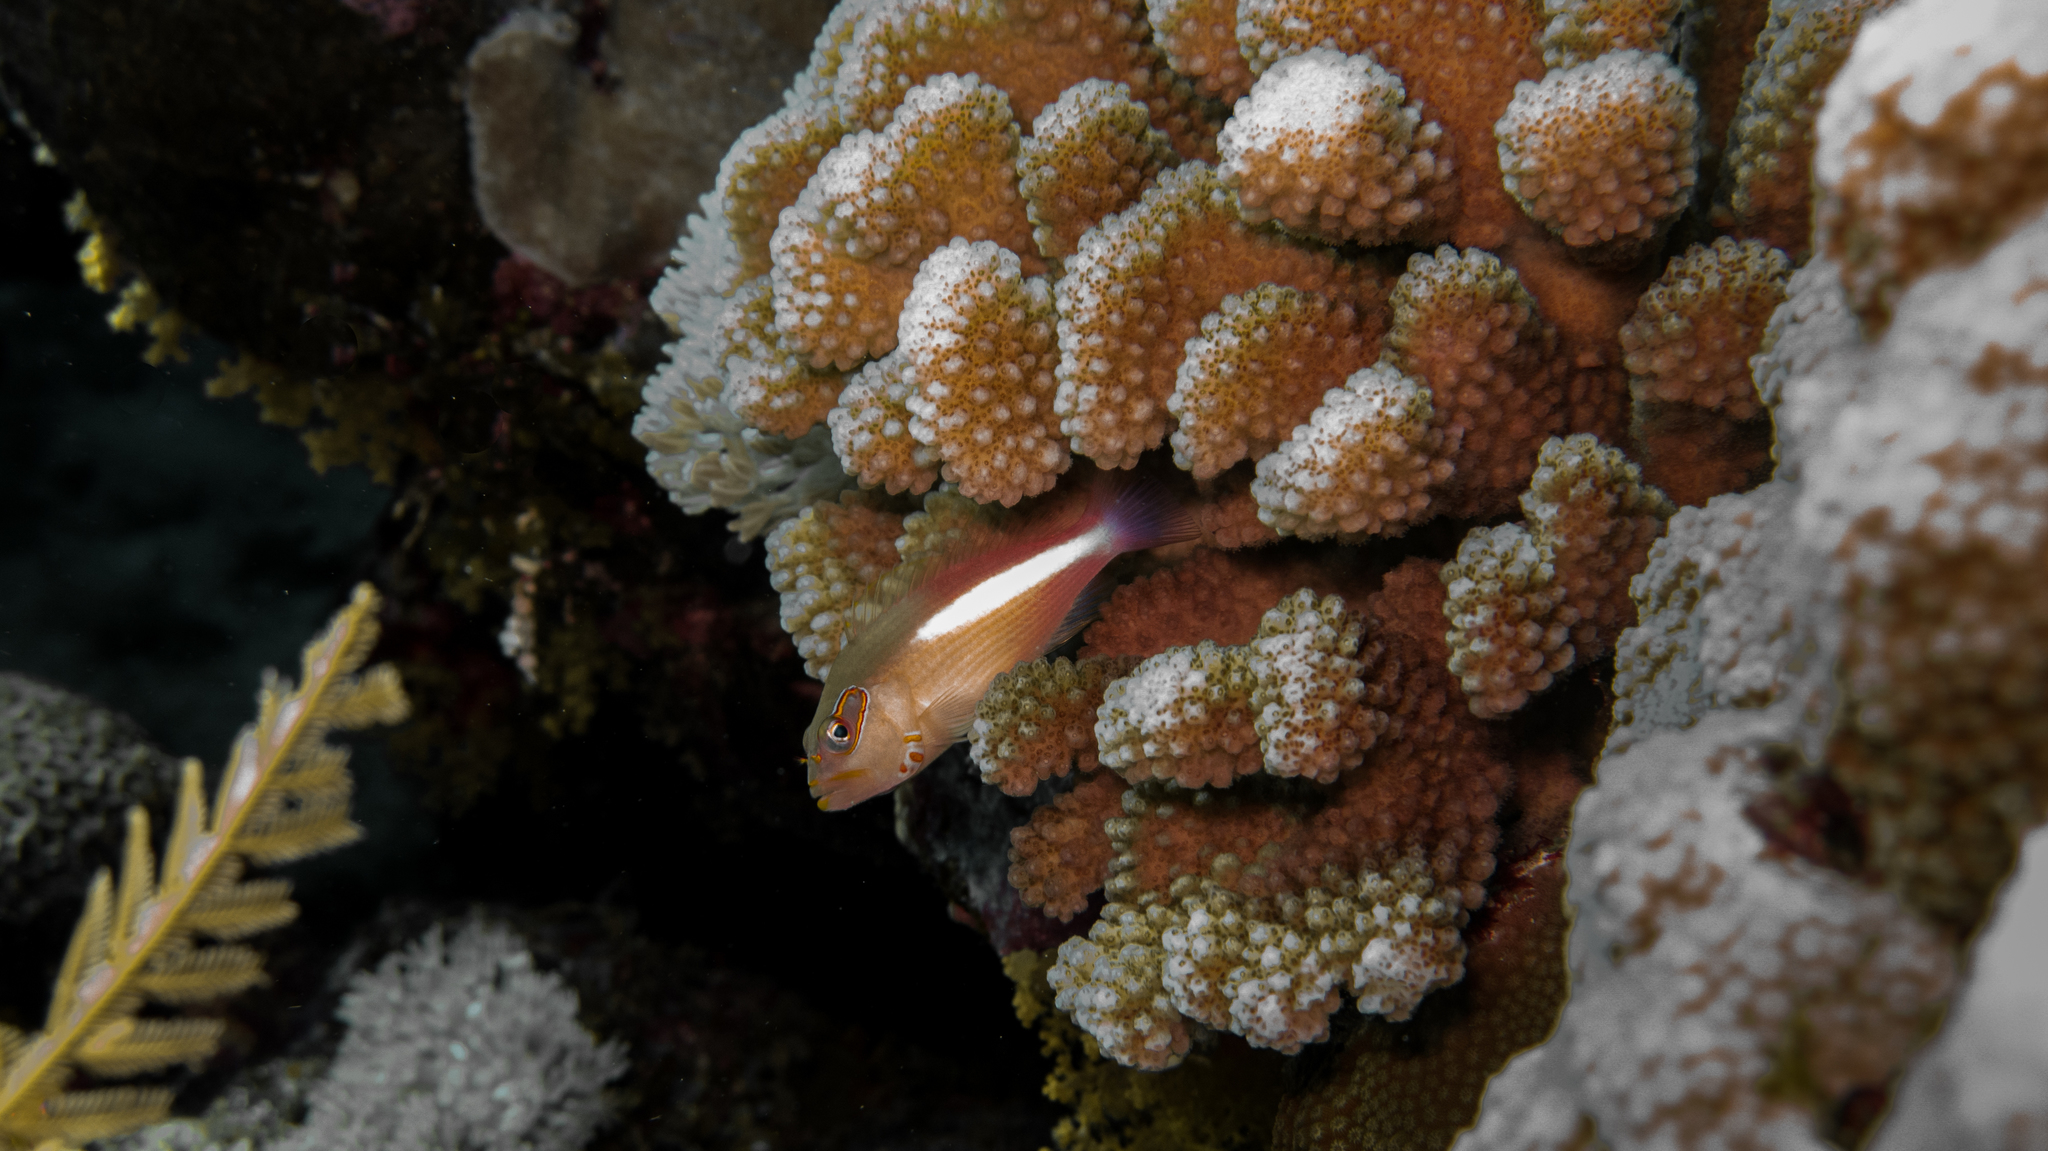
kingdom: Animalia
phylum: Chordata
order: Perciformes
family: Cirrhitidae
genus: Paracirrhites
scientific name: Paracirrhites arcatus
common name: Arc-eye hawkfish
